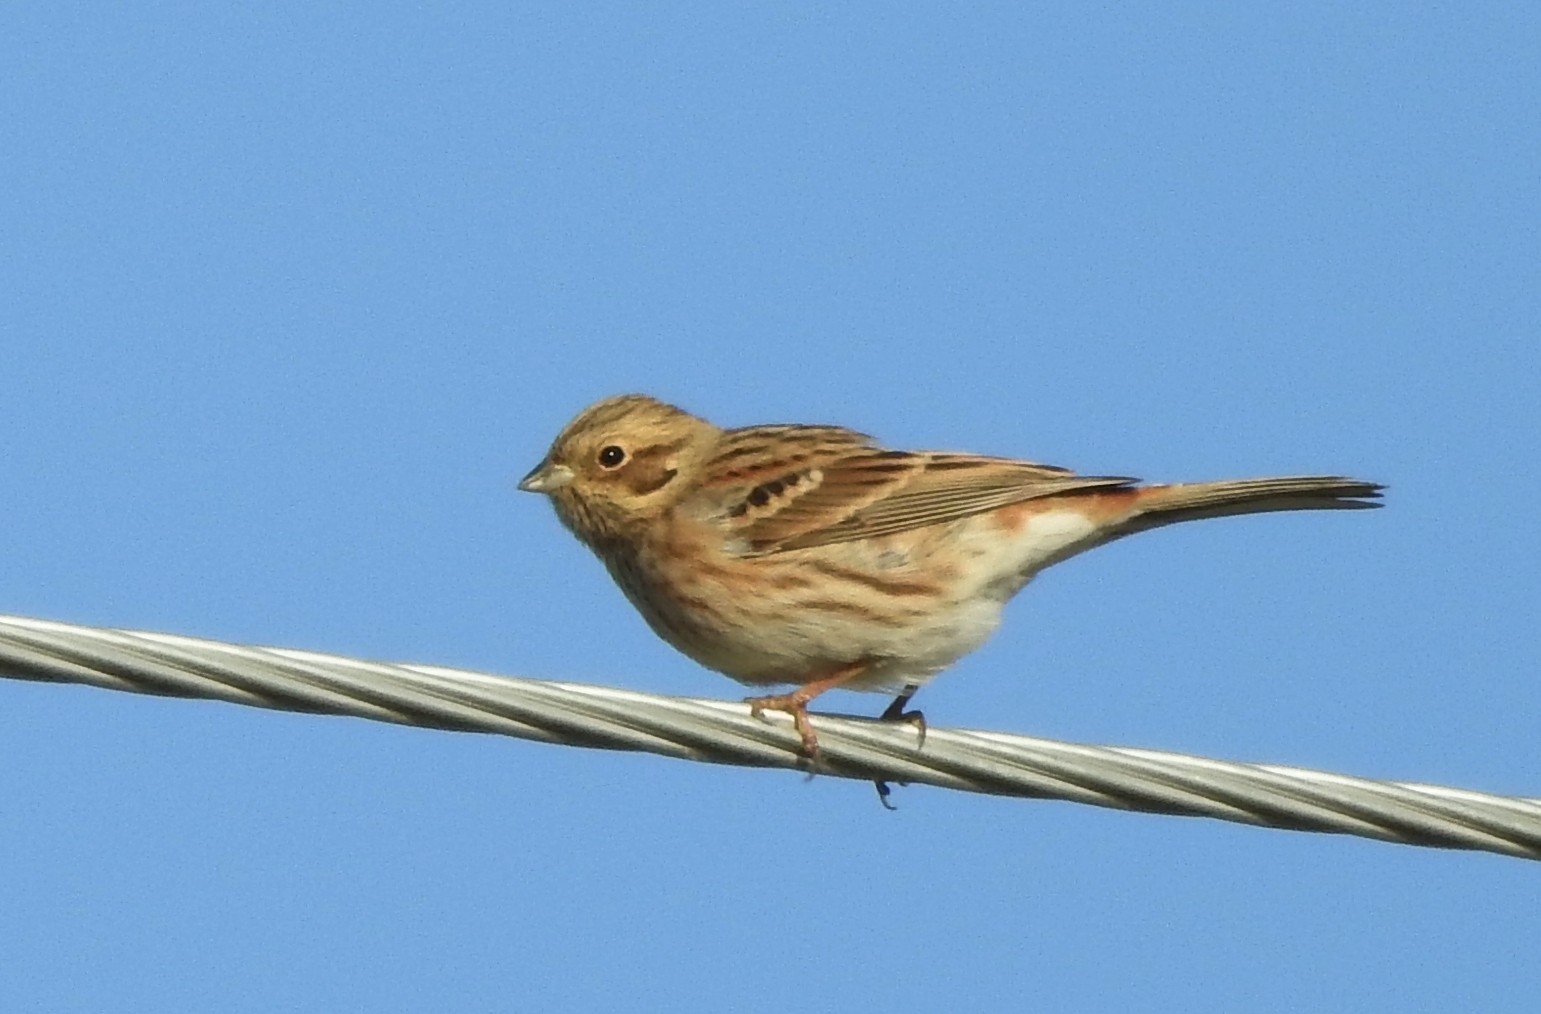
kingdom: Animalia
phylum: Chordata
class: Aves
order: Passeriformes
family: Emberizidae
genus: Emberiza
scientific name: Emberiza
